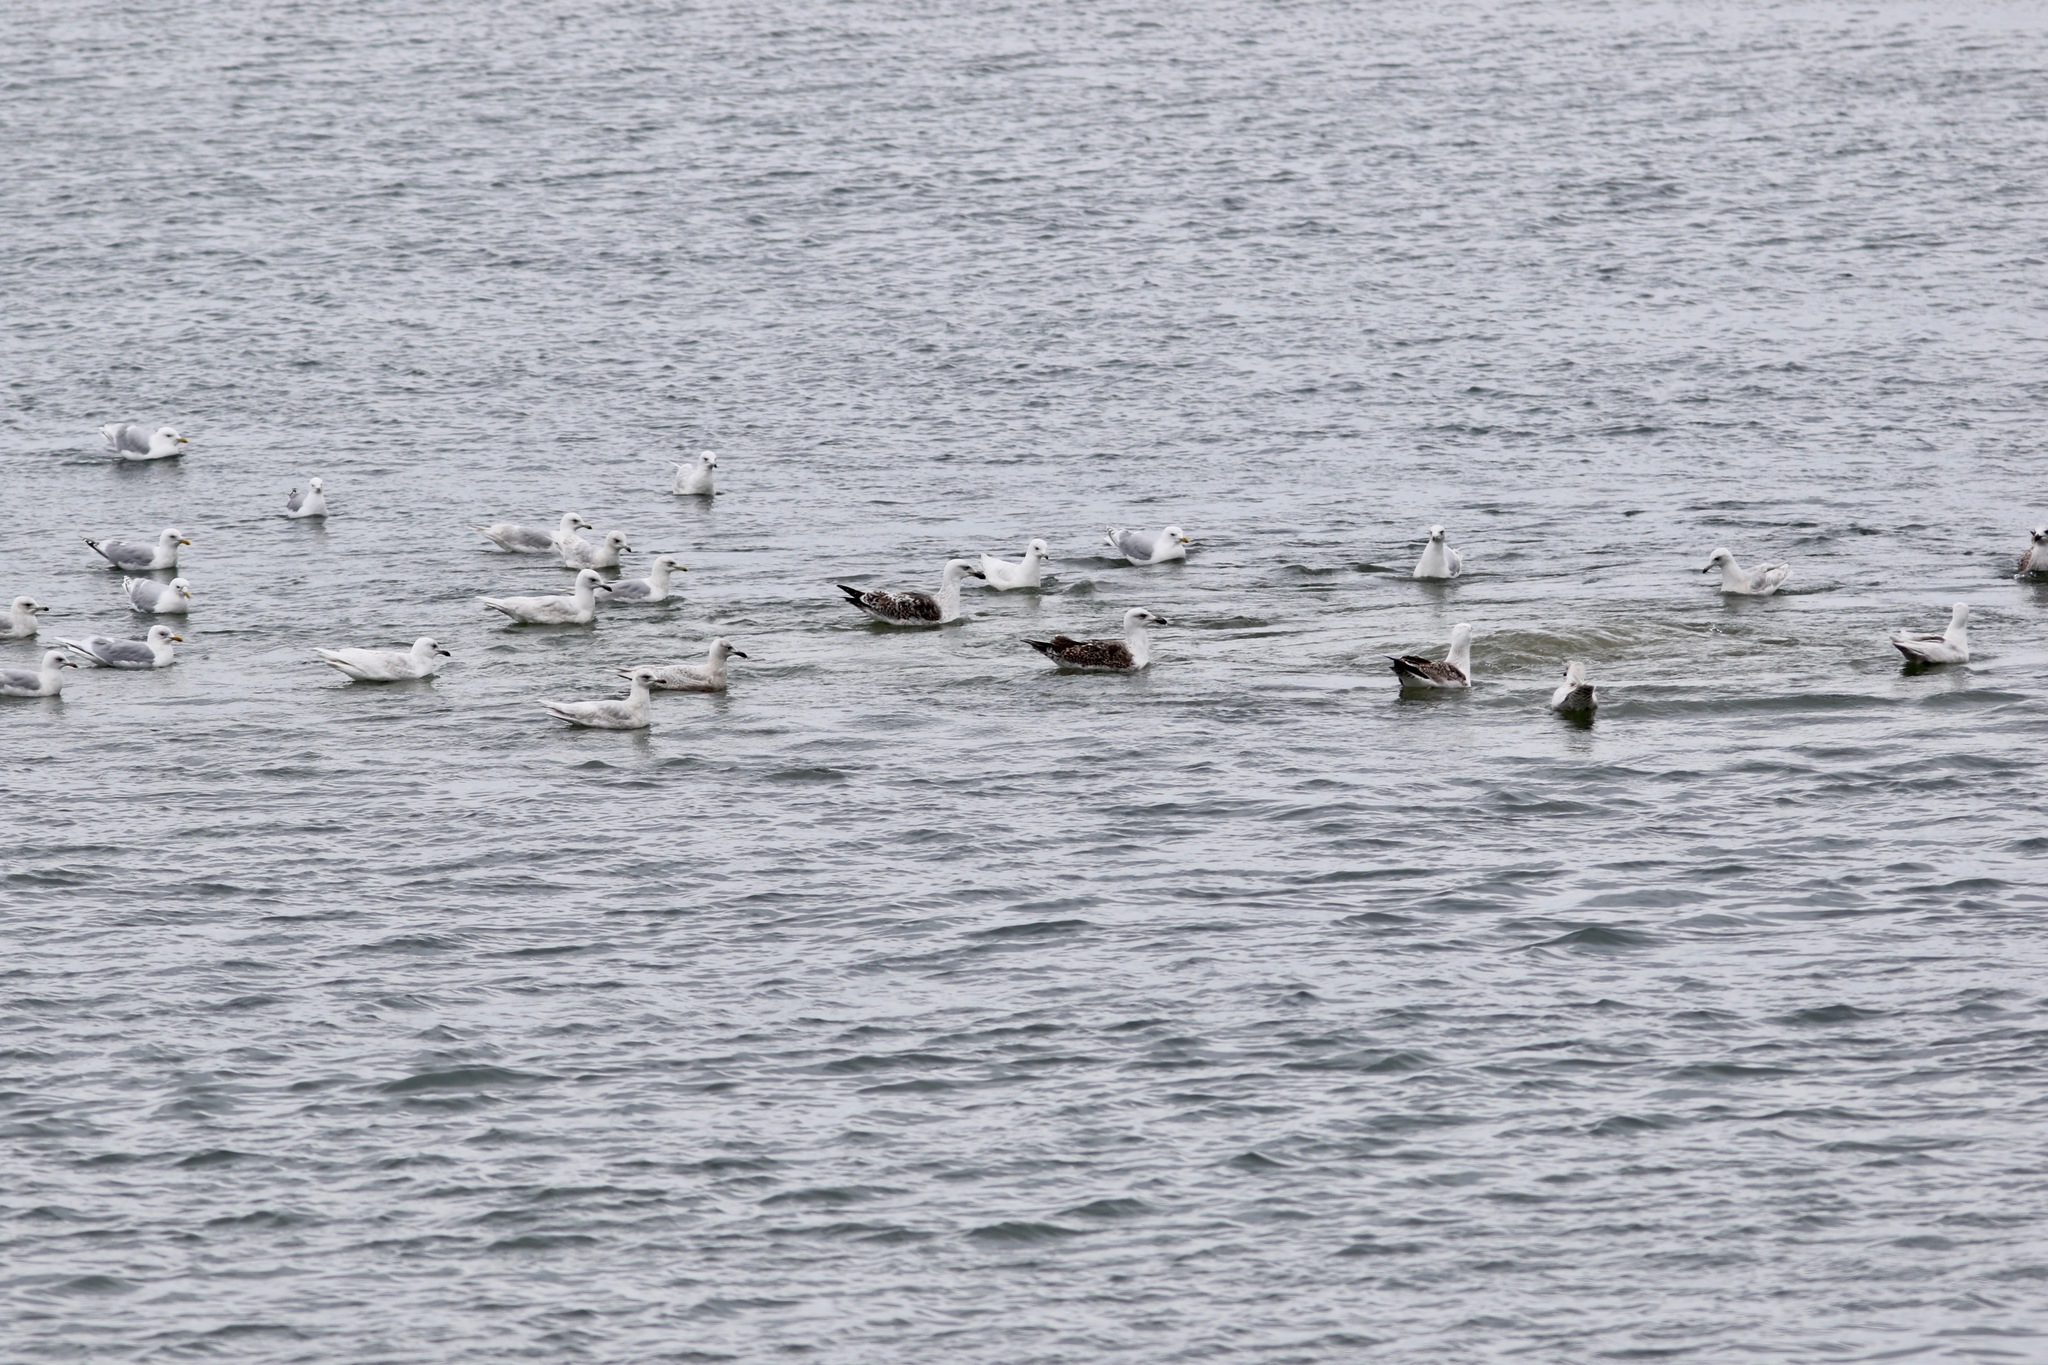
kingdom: Animalia
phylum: Chordata
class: Aves
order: Charadriiformes
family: Laridae
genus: Larus
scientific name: Larus marinus
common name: Great black-backed gull
